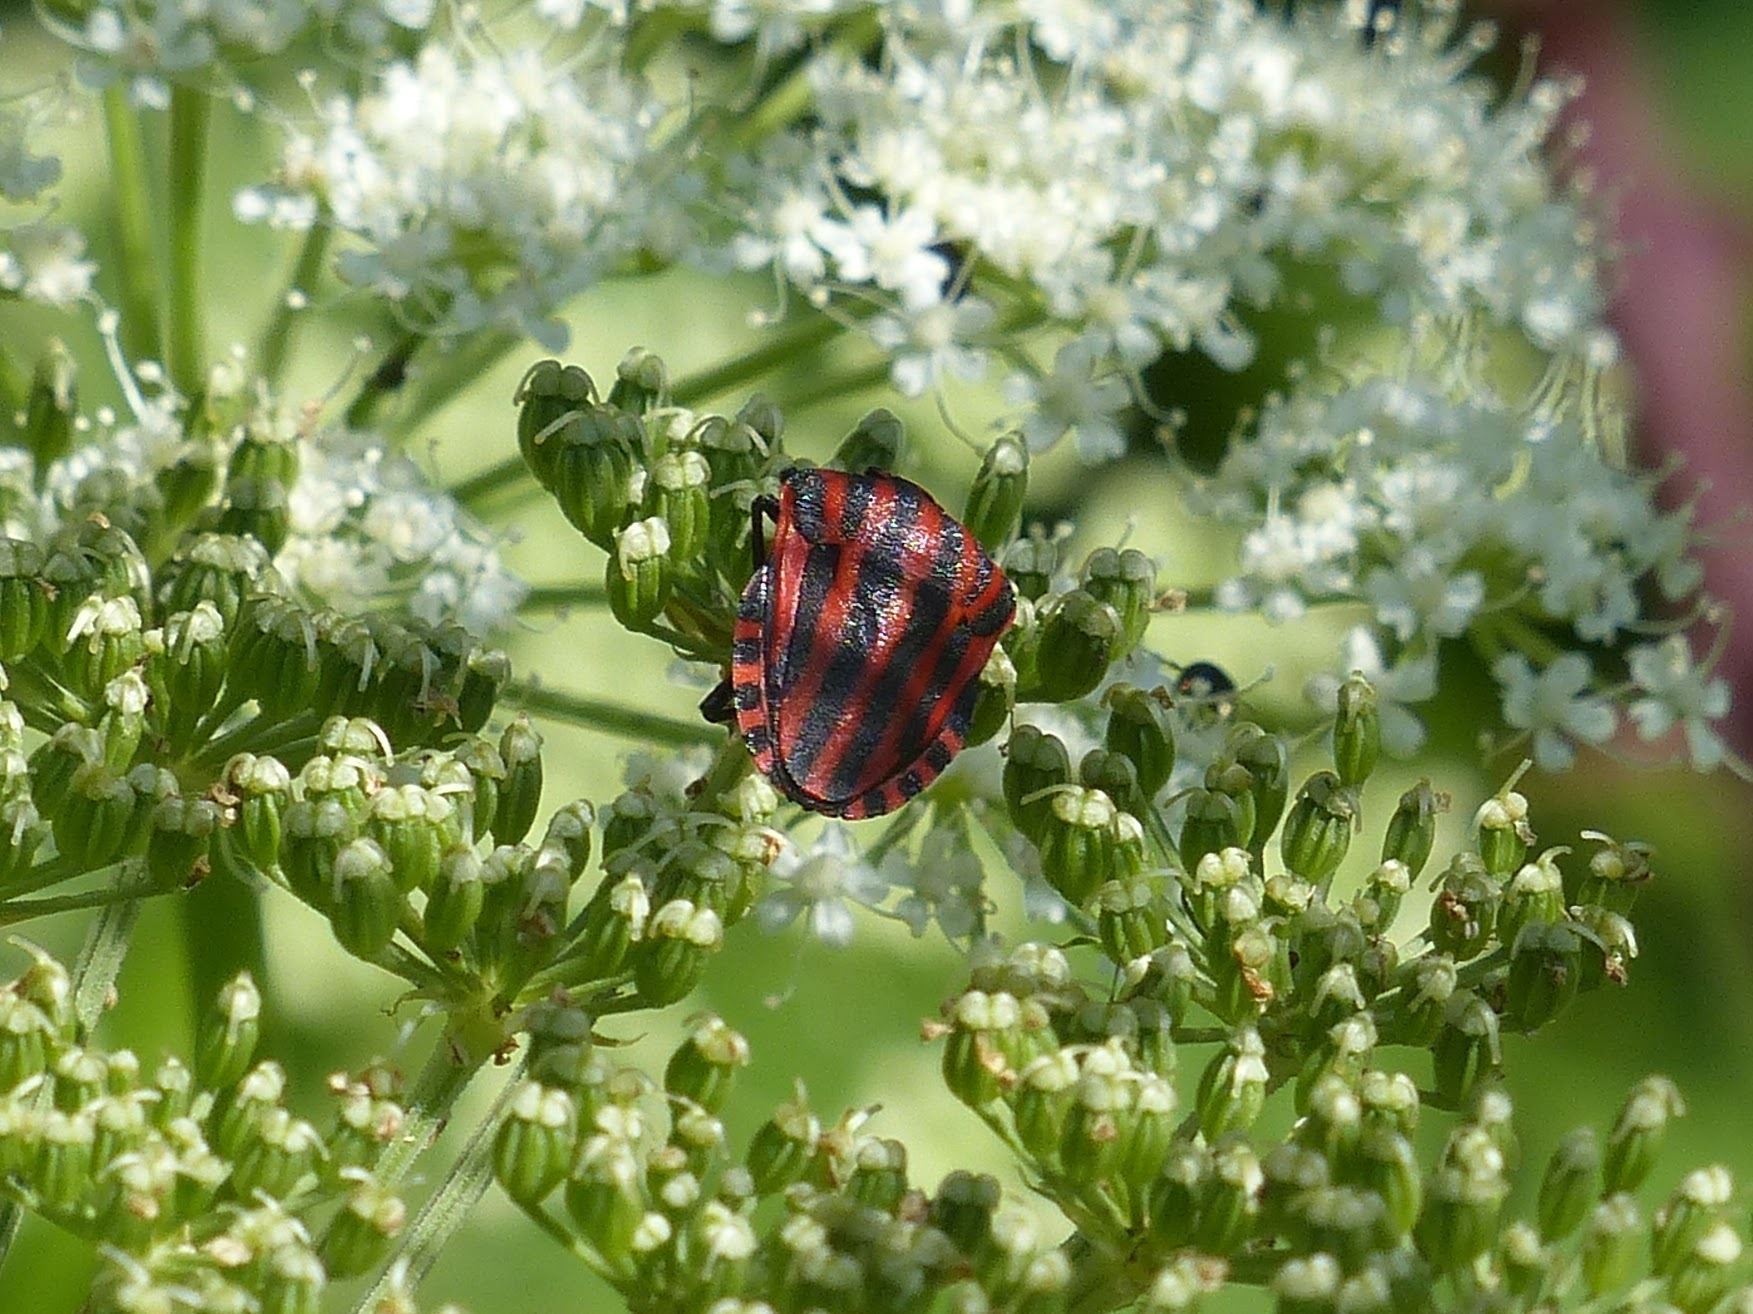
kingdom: Animalia
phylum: Arthropoda
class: Insecta
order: Hemiptera
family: Pentatomidae
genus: Graphosoma
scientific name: Graphosoma italicum
